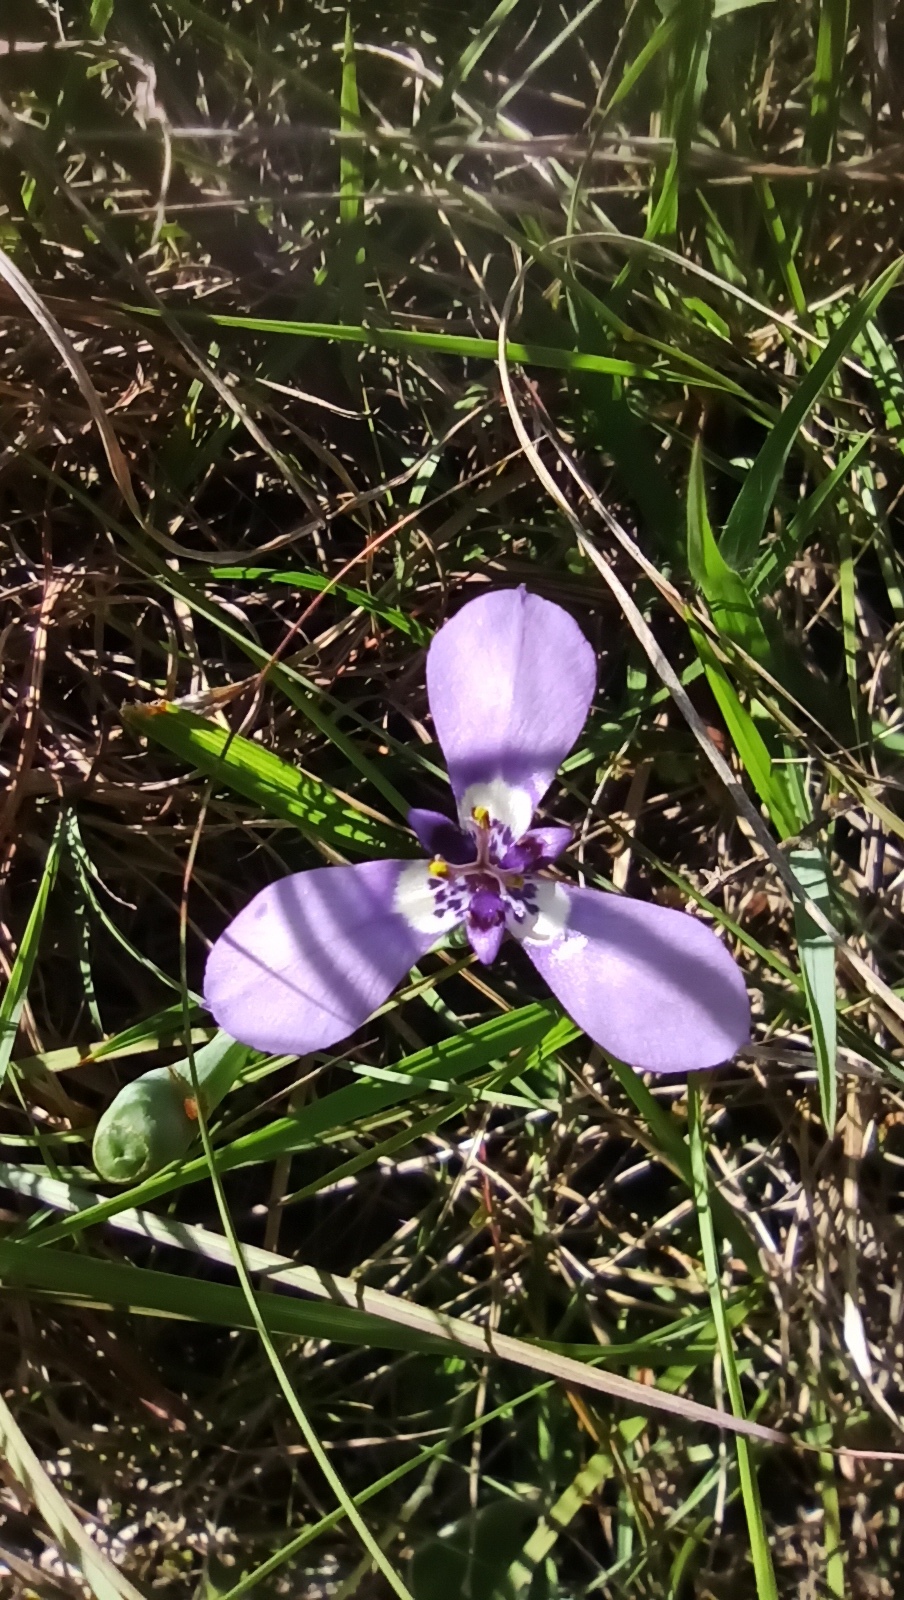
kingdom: Plantae
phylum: Tracheophyta
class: Liliopsida
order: Asparagales
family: Iridaceae
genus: Herbertia
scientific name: Herbertia lahue
